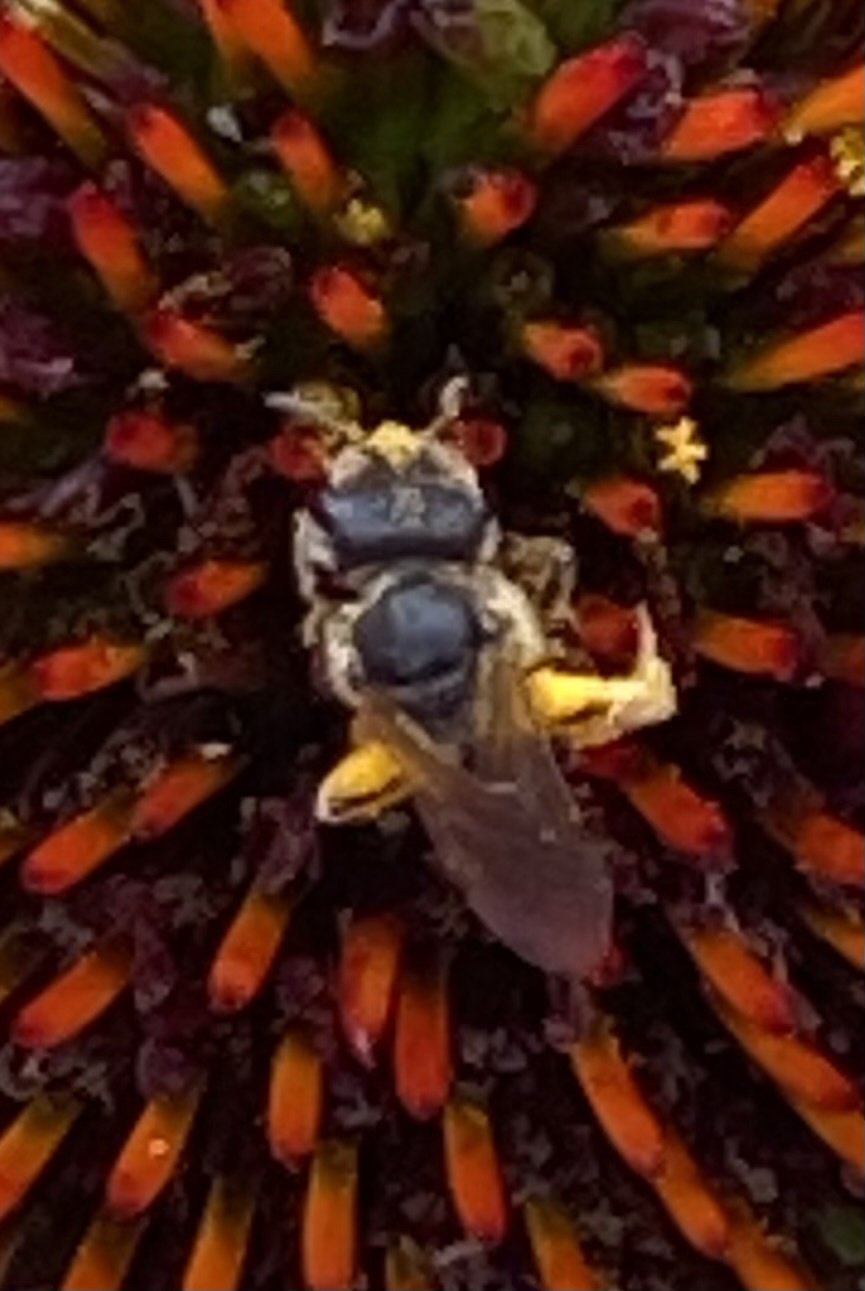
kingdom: Animalia
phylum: Arthropoda
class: Insecta
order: Hymenoptera
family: Halictidae
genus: Halictus
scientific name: Halictus ligatus
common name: Ligated furrow bee
